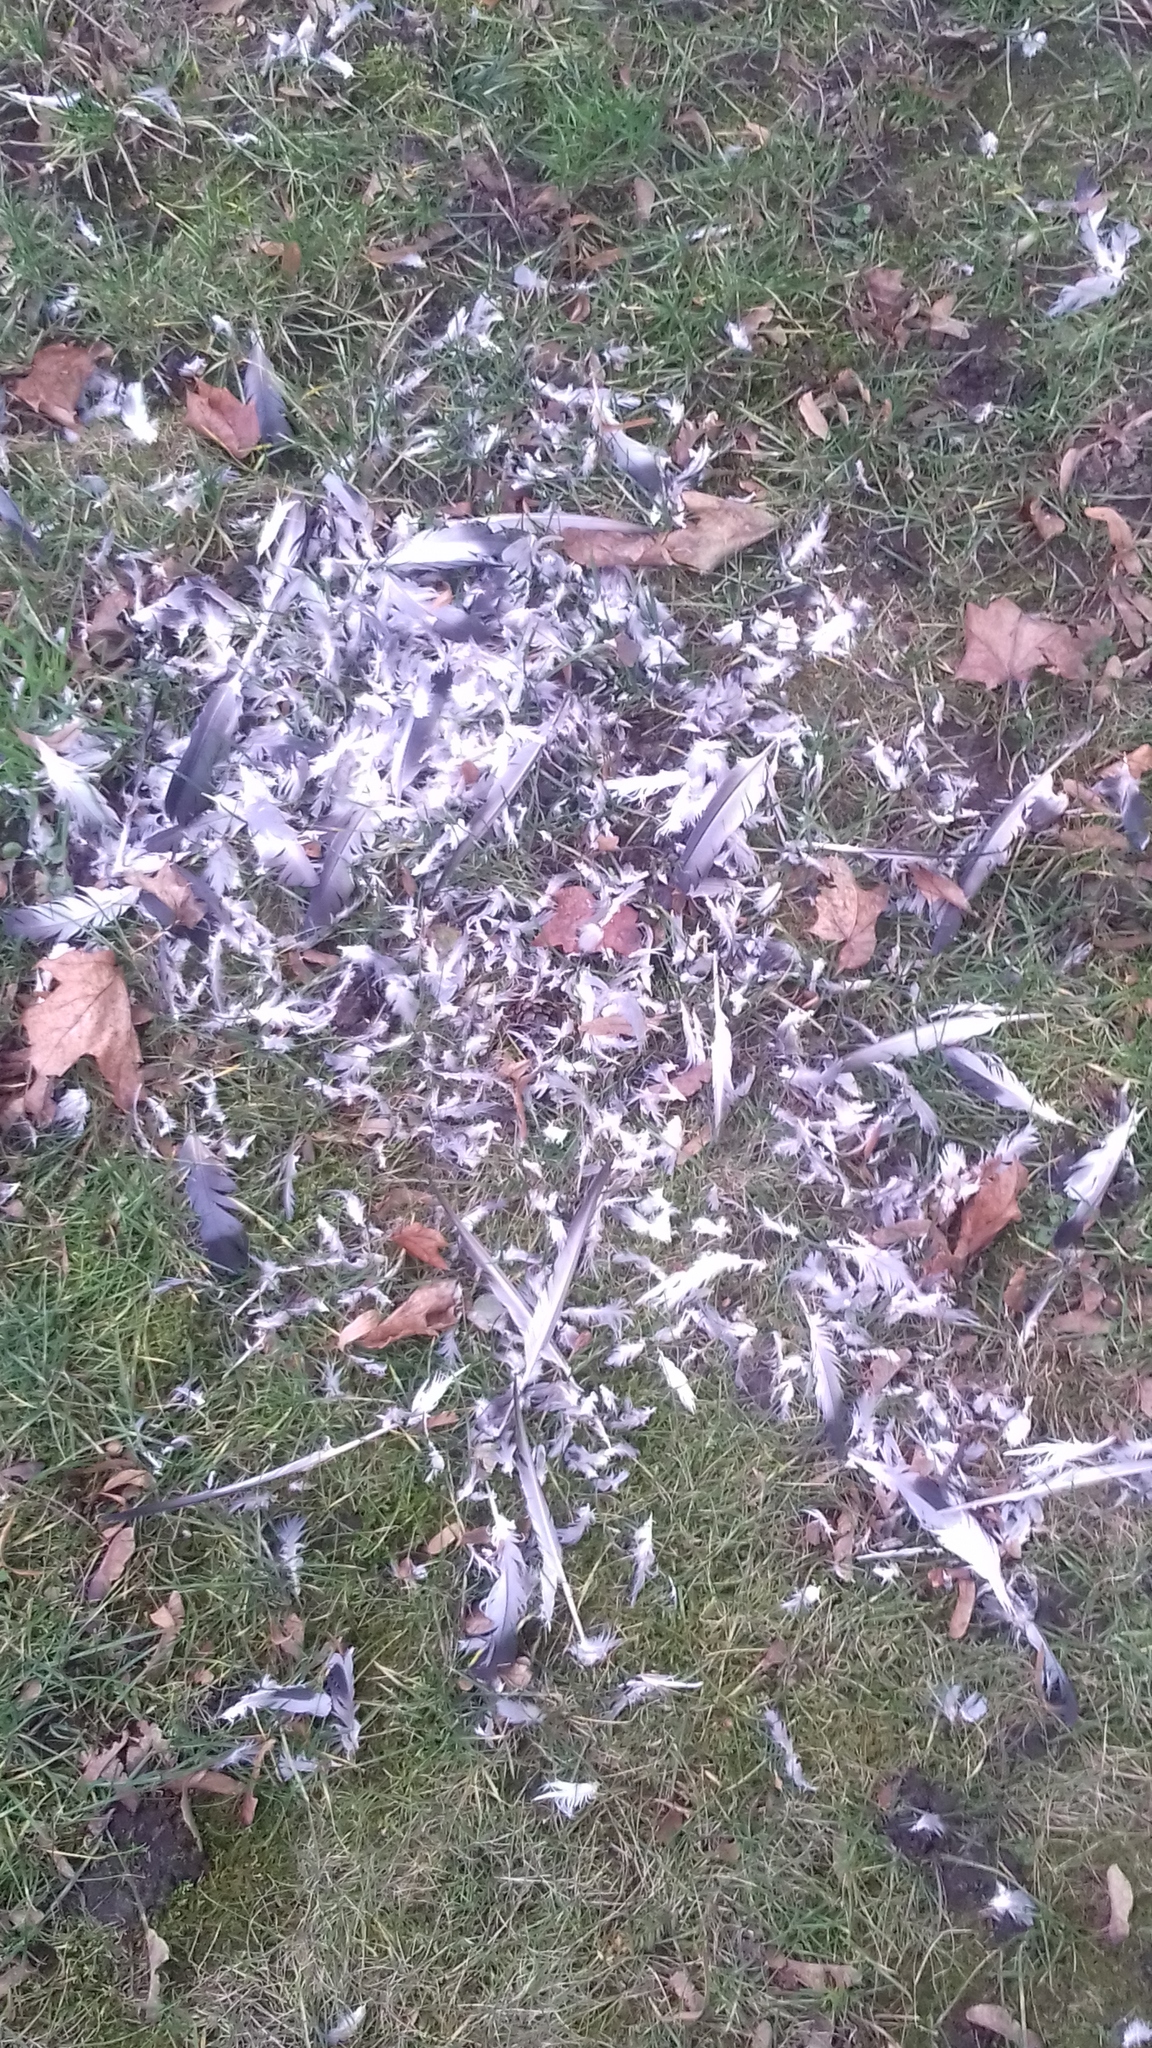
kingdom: Animalia
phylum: Chordata
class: Aves
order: Columbiformes
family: Columbidae
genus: Columba
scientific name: Columba livia
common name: Rock pigeon
